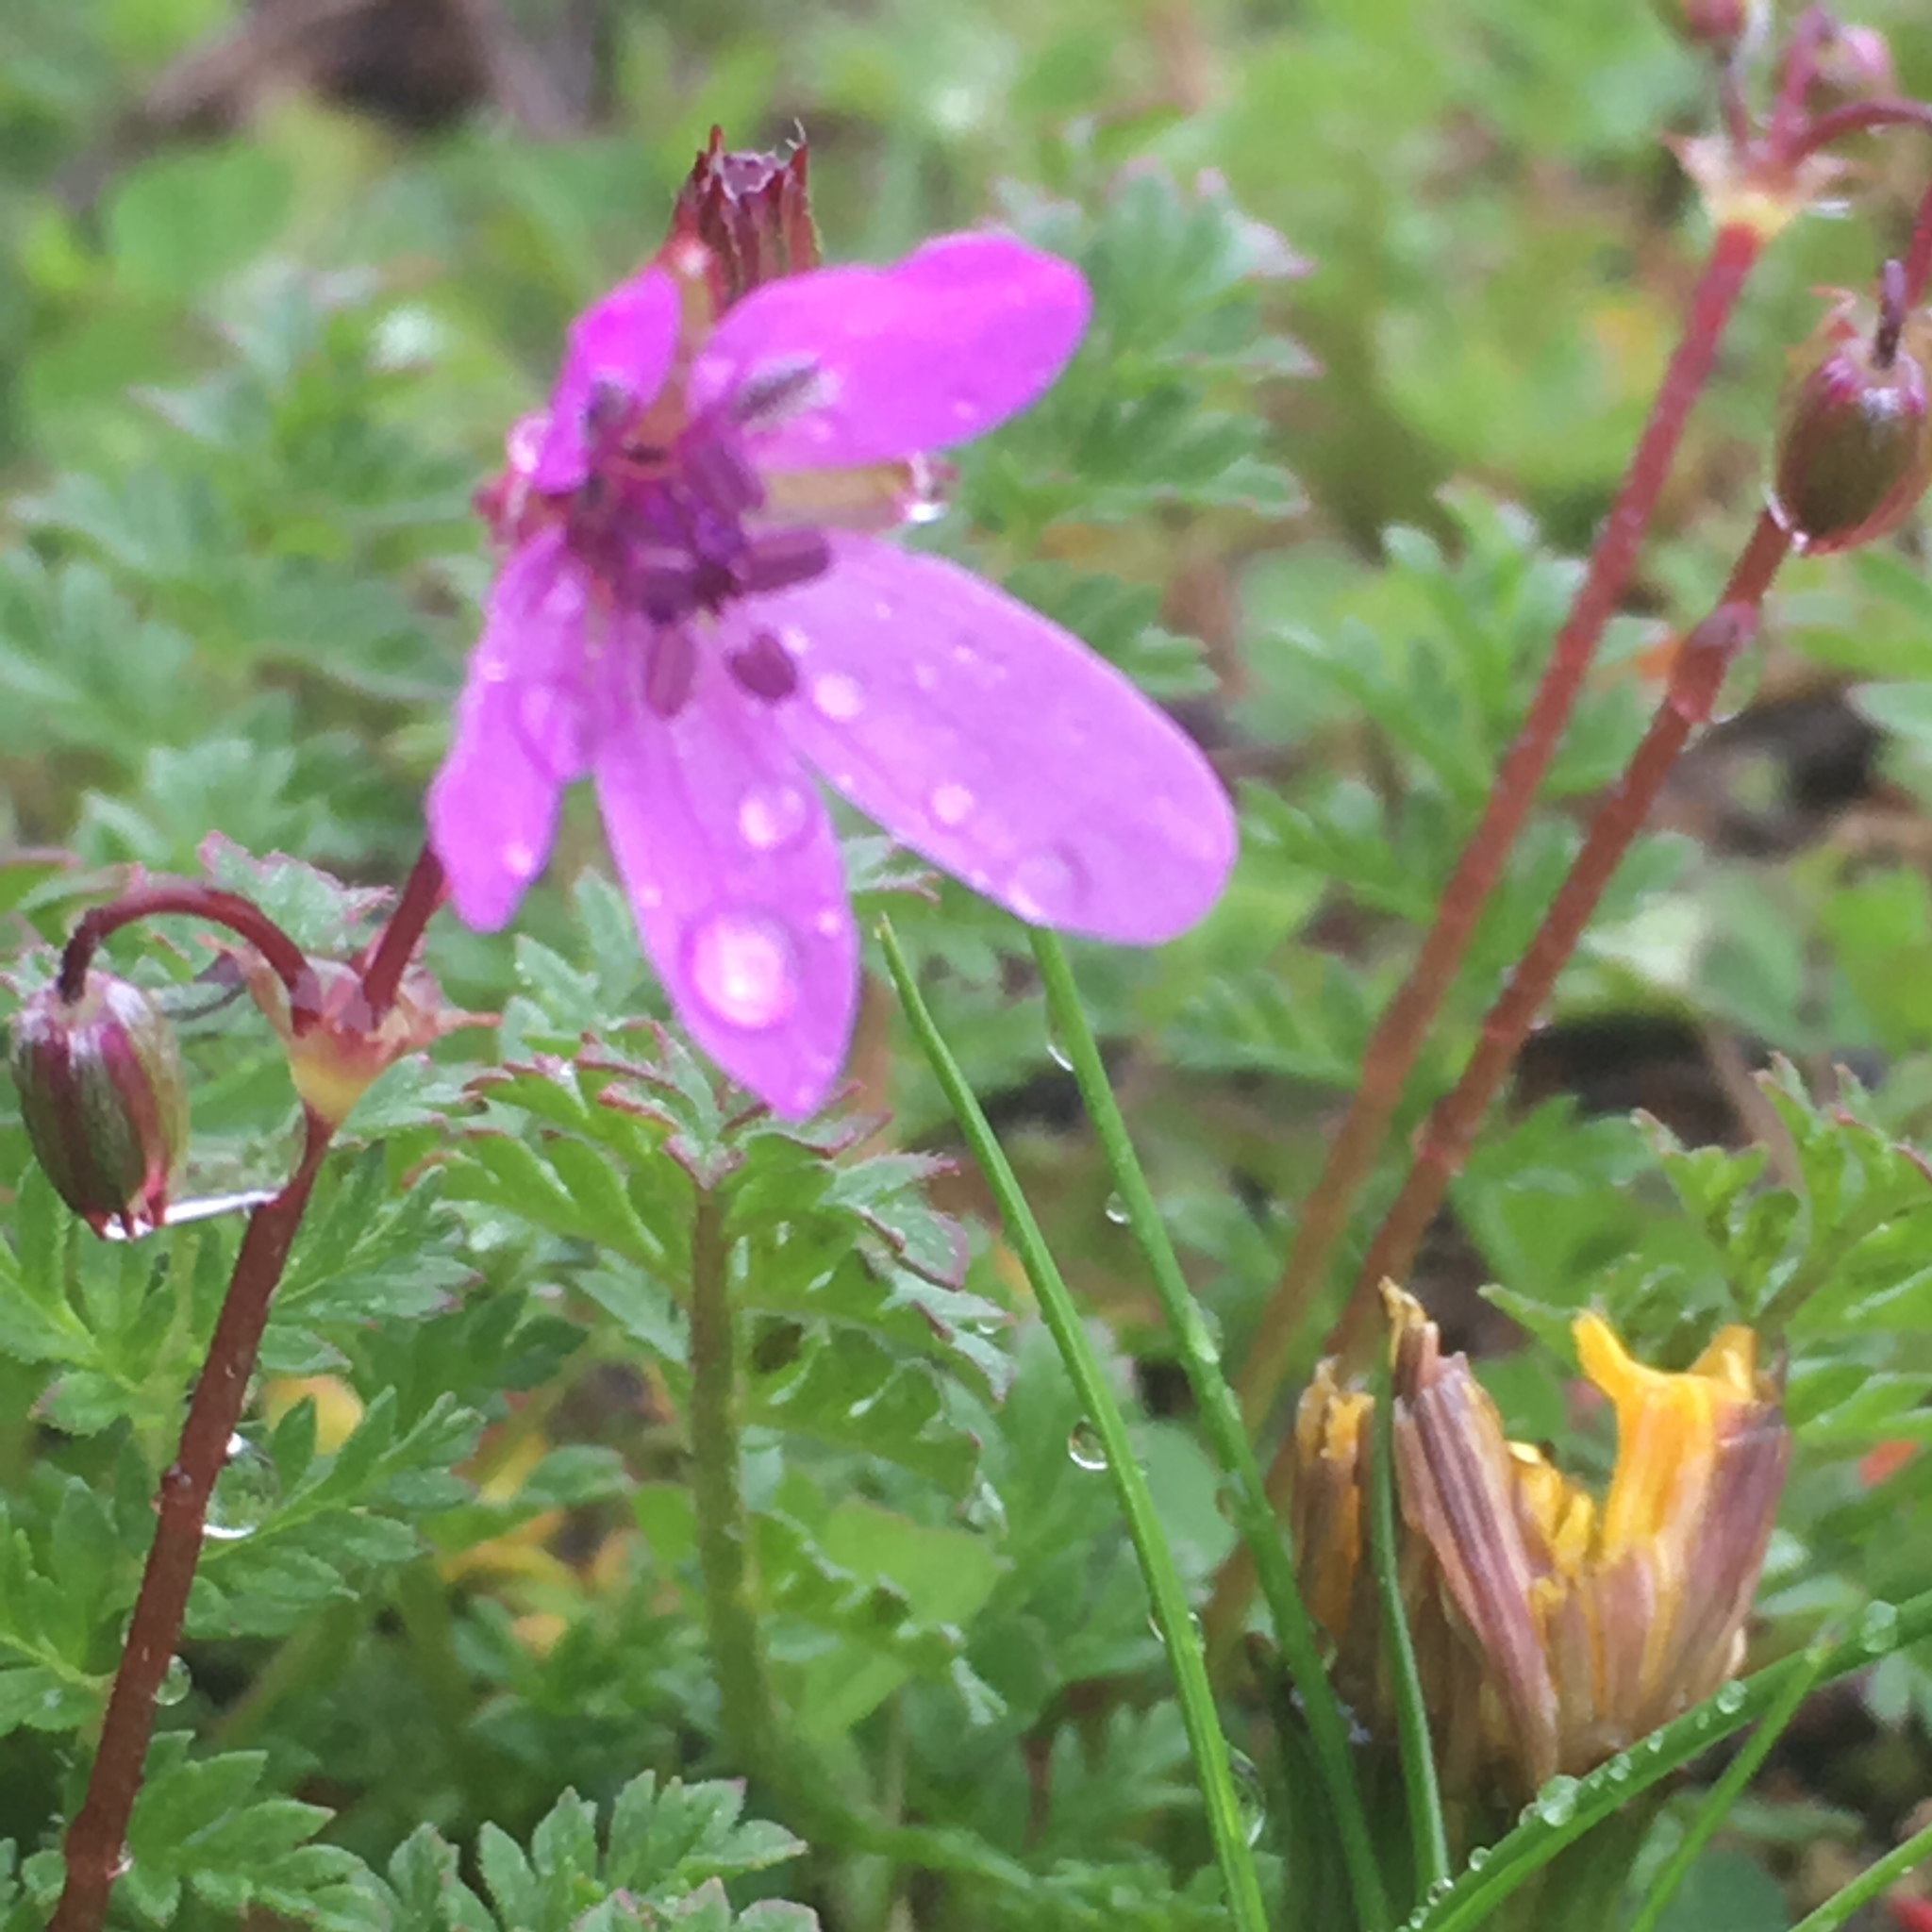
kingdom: Plantae
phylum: Tracheophyta
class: Magnoliopsida
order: Geraniales
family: Geraniaceae
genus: Erodium
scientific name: Erodium cicutarium
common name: Common stork's-bill
